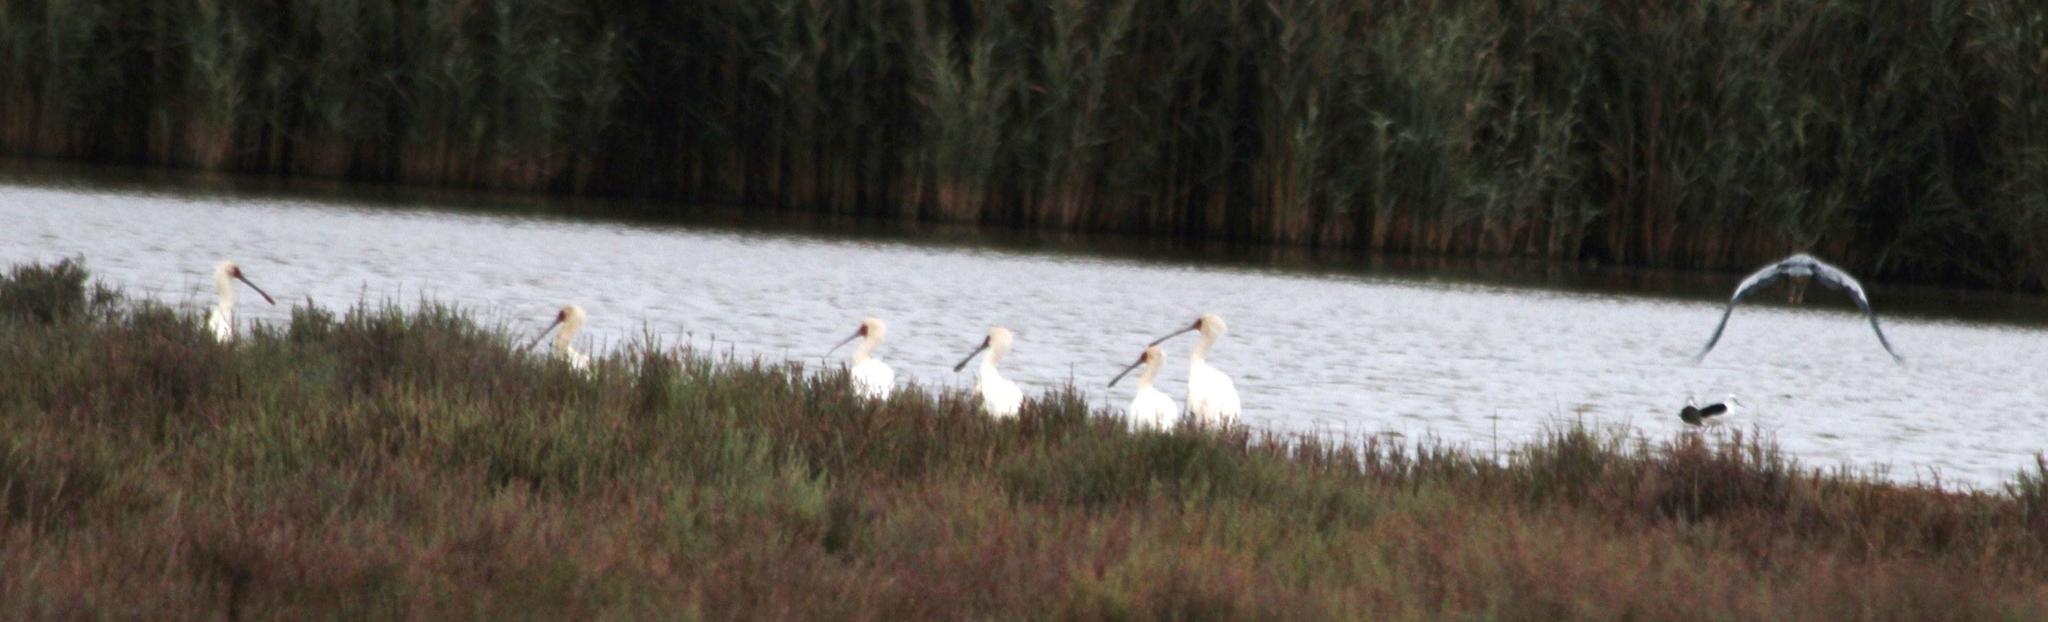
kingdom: Animalia
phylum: Chordata
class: Aves
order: Pelecaniformes
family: Threskiornithidae
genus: Platalea
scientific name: Platalea alba
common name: African spoonbill
